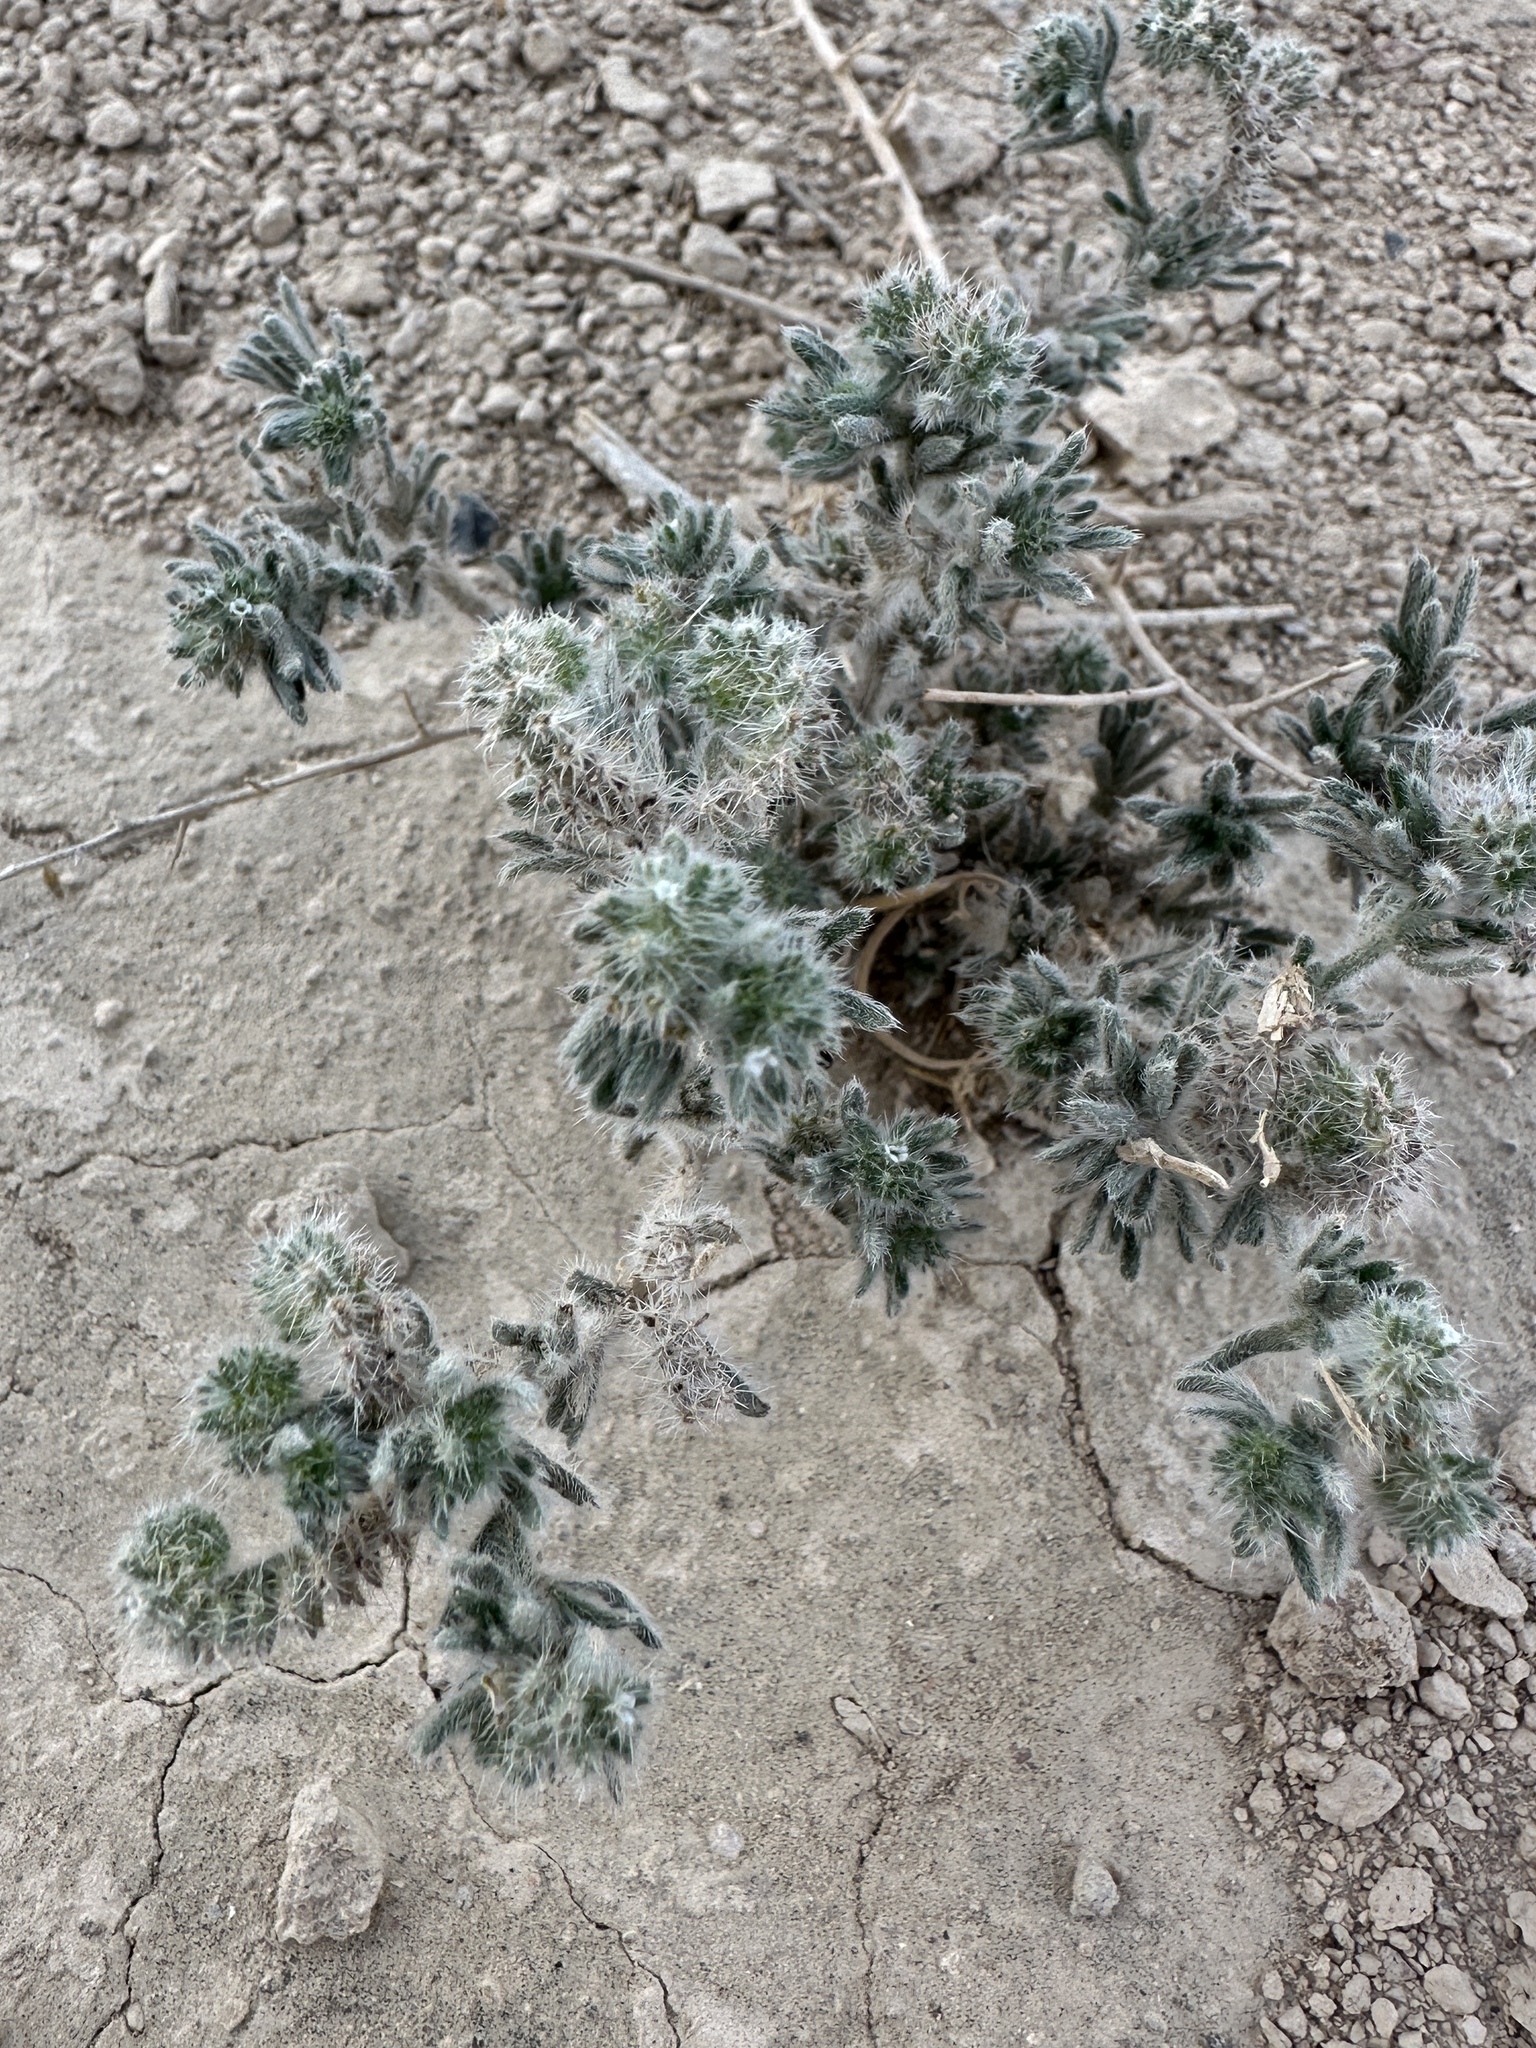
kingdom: Plantae
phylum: Tracheophyta
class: Magnoliopsida
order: Boraginales
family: Boraginaceae
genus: Johnstonella
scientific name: Johnstonella angustifolia
